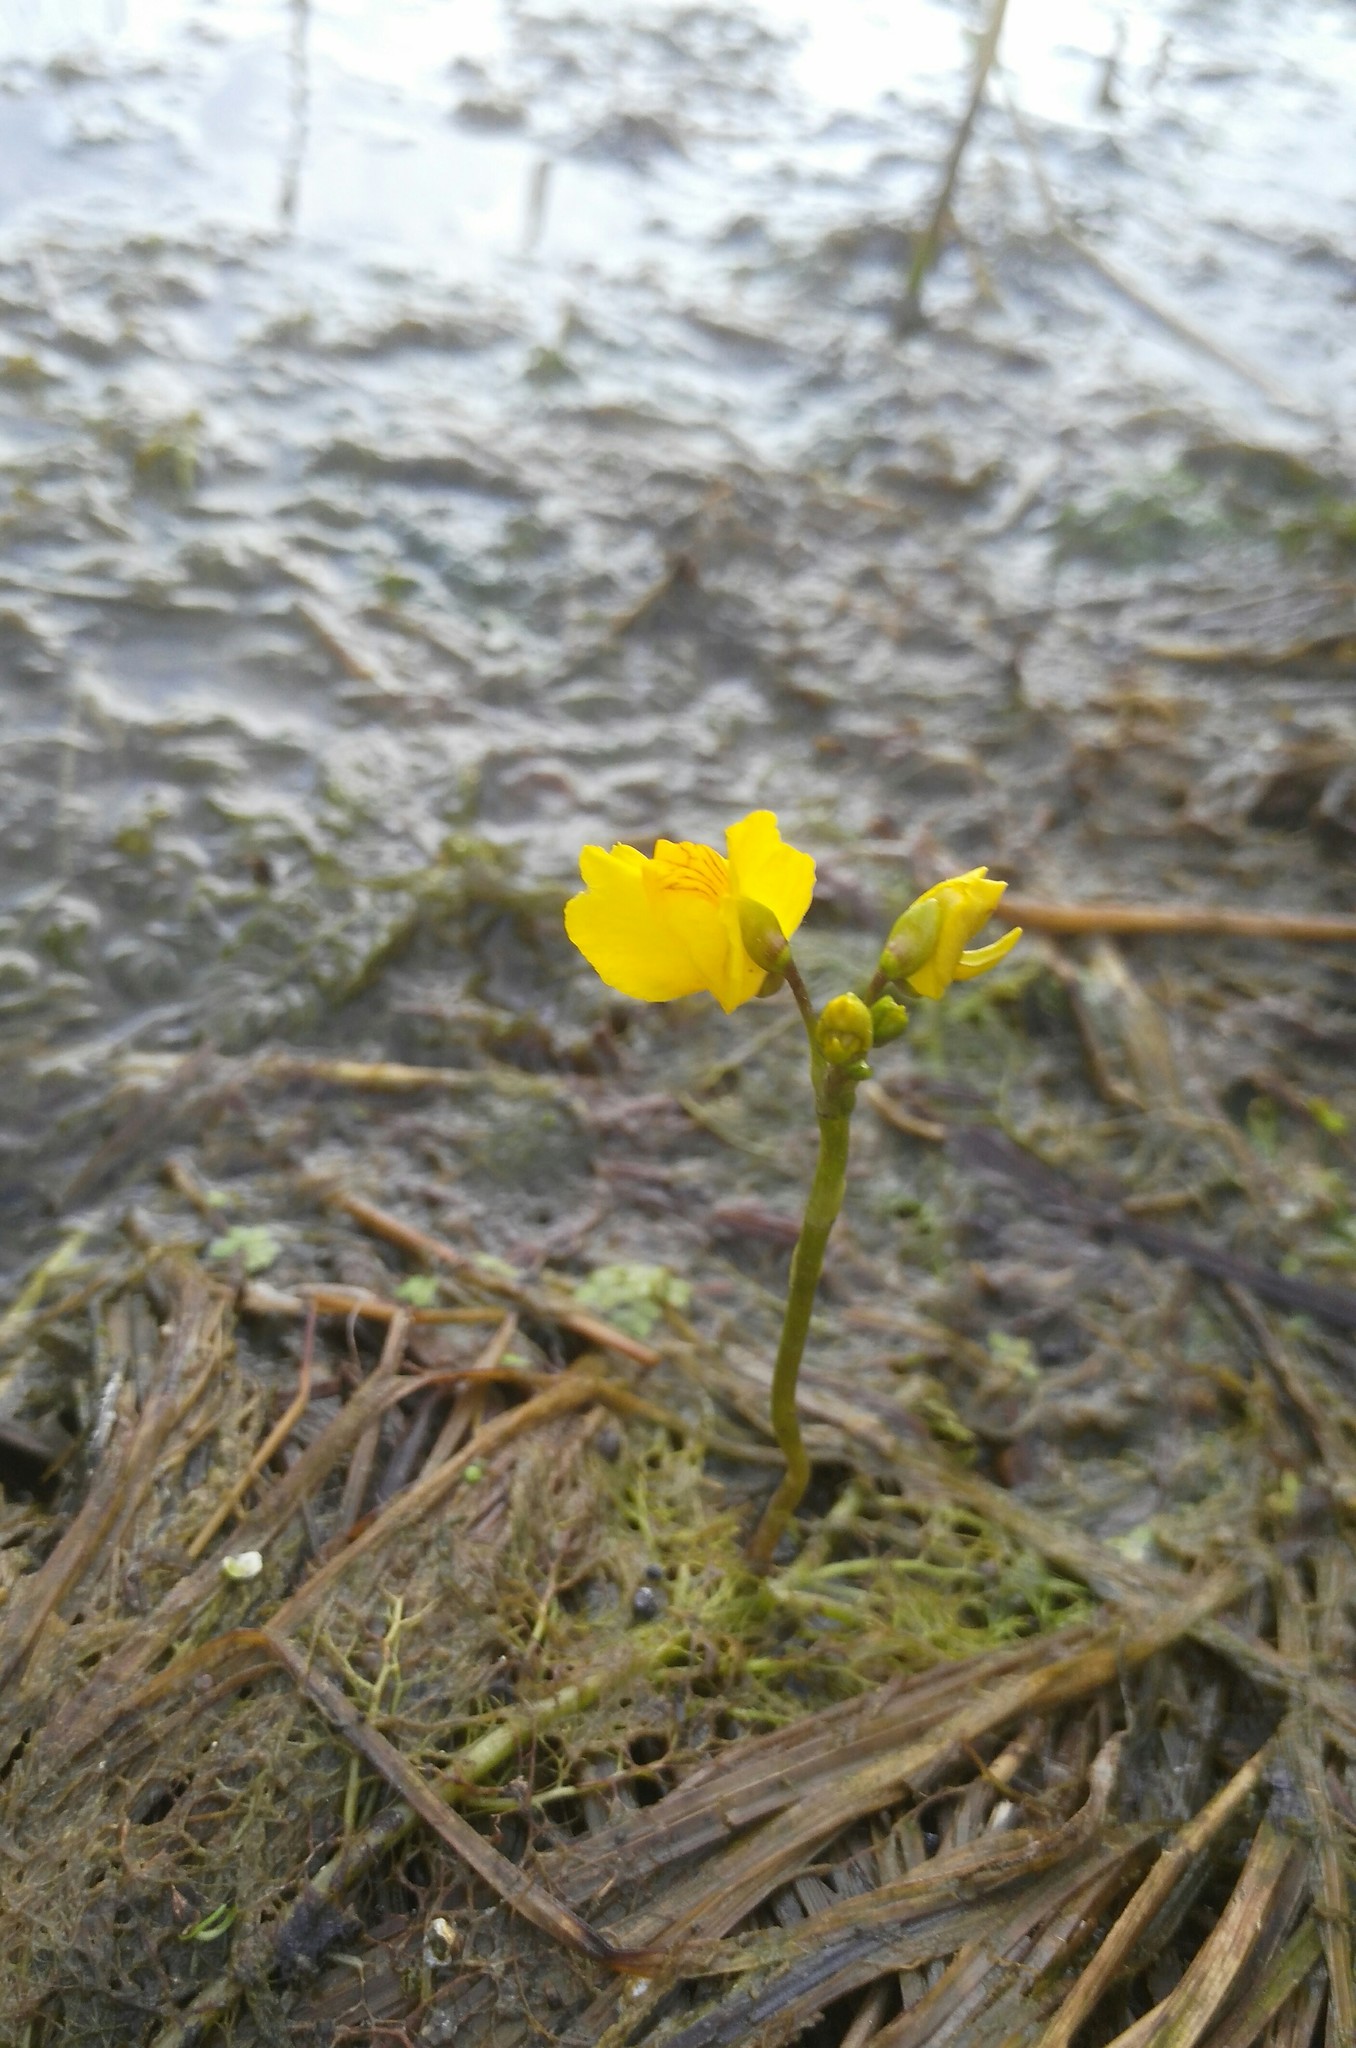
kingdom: Plantae
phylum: Tracheophyta
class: Magnoliopsida
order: Lamiales
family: Lentibulariaceae
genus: Utricularia
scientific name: Utricularia macrorhiza
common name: Common bladderwort
